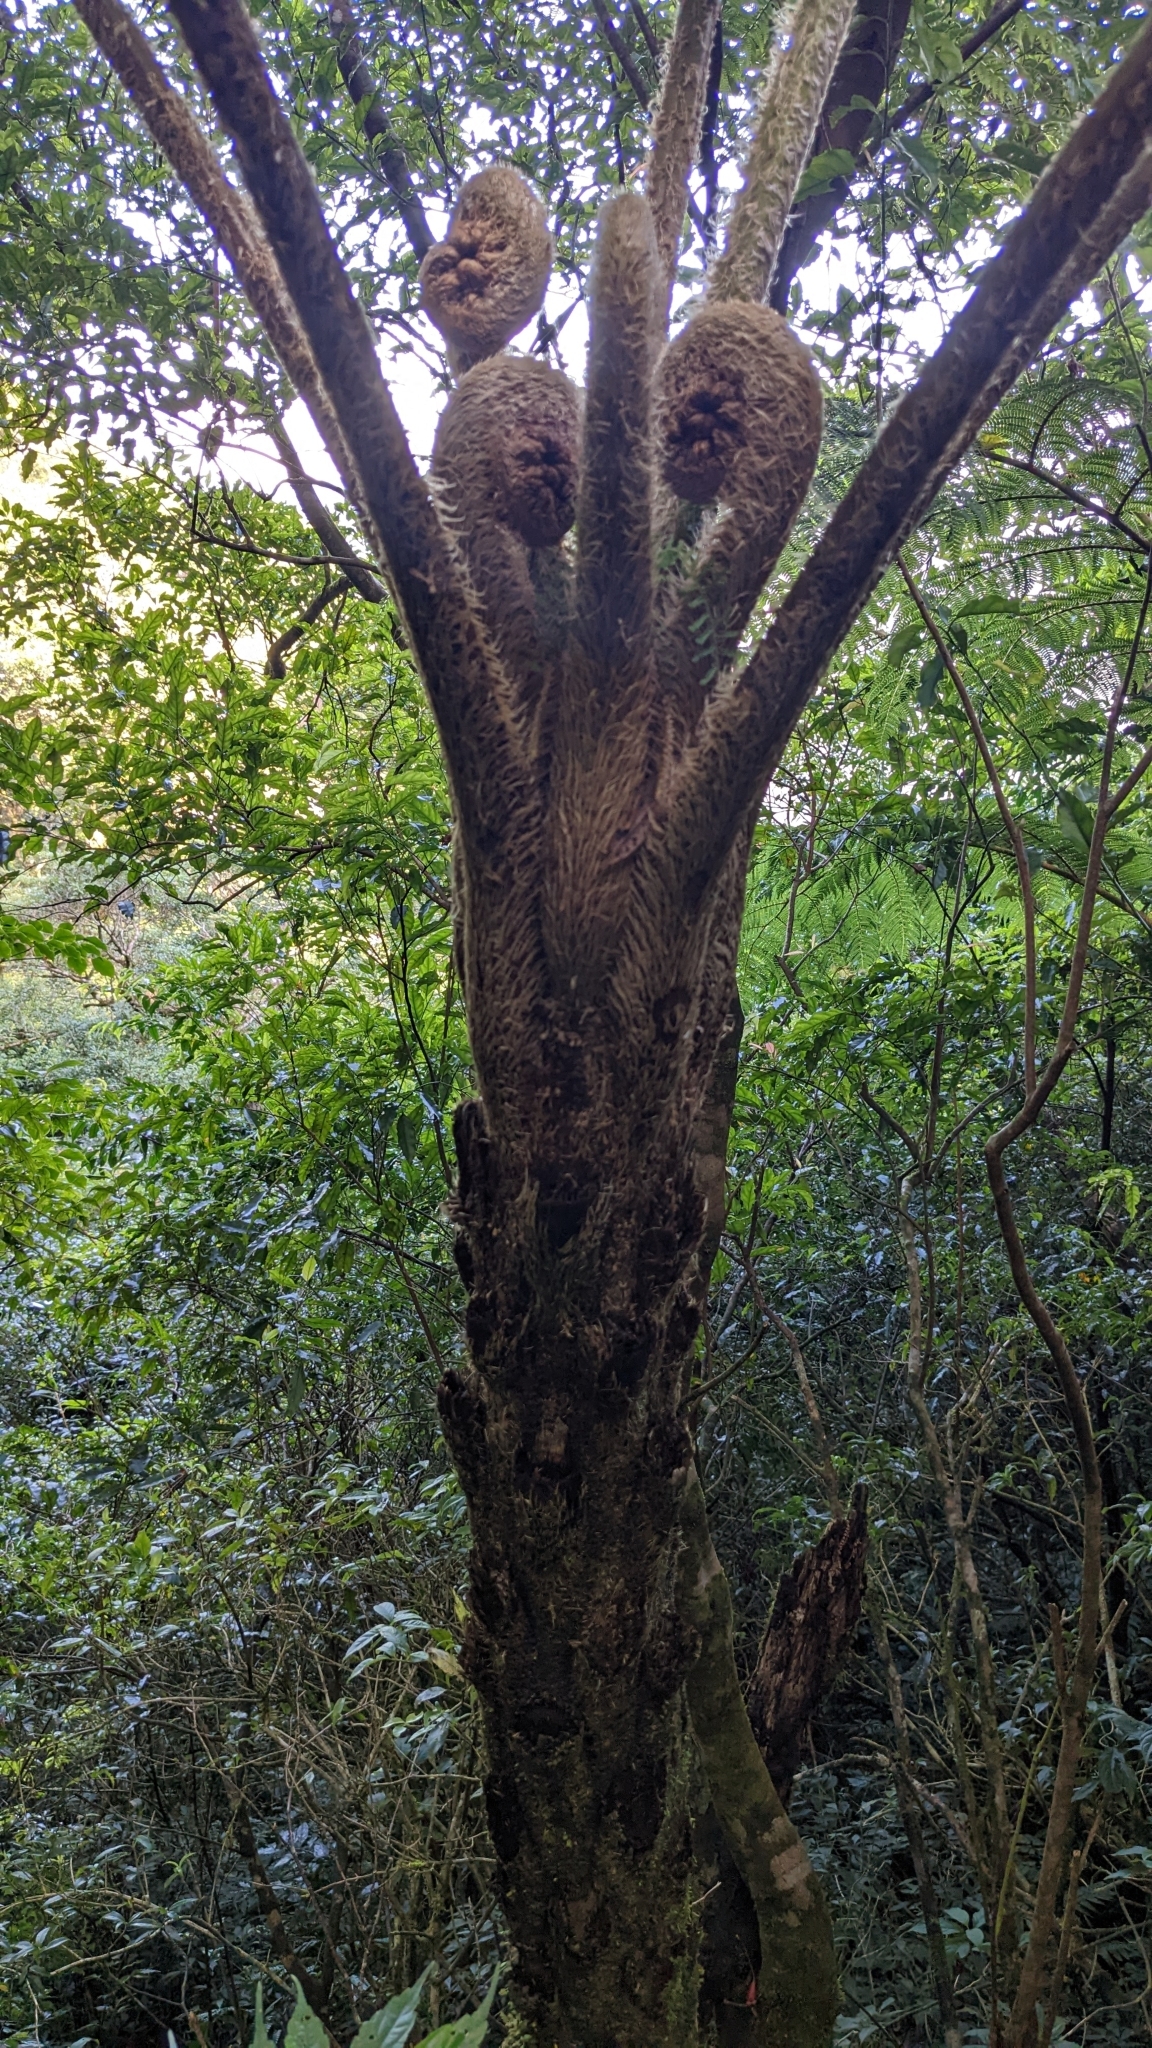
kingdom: Plantae
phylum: Tracheophyta
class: Polypodiopsida
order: Cyatheales
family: Cyatheaceae
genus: Alsophila
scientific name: Alsophila loheri
